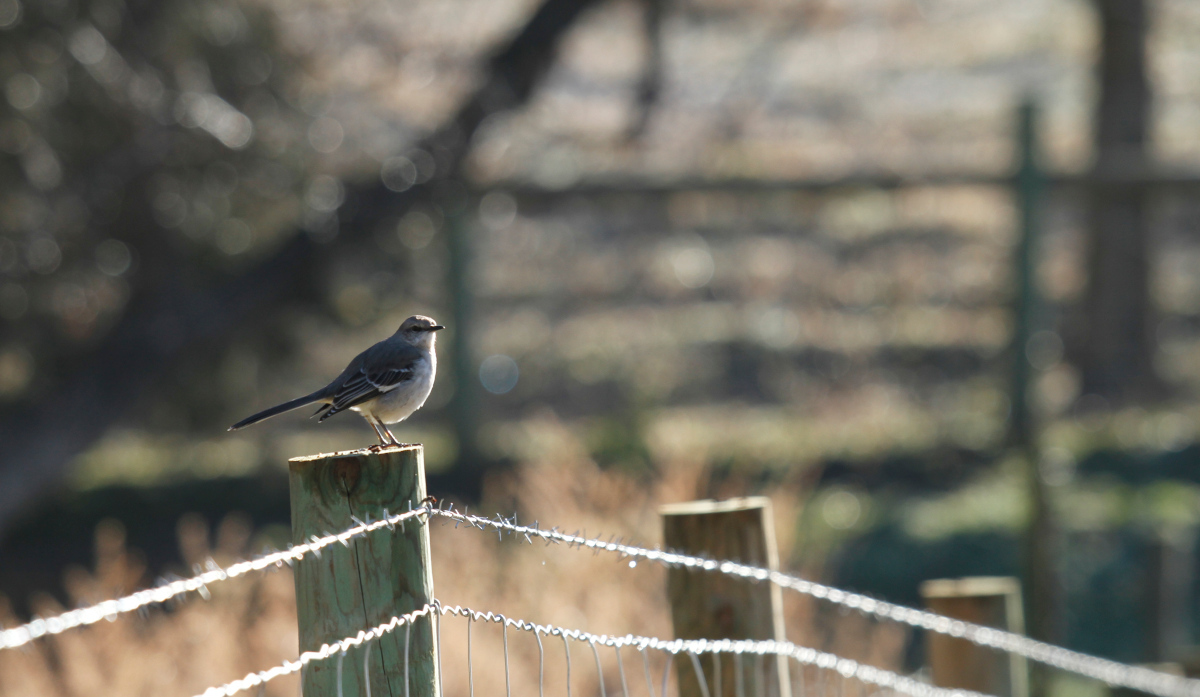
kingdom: Animalia
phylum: Chordata
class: Aves
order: Passeriformes
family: Mimidae
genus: Mimus
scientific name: Mimus polyglottos
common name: Northern mockingbird
